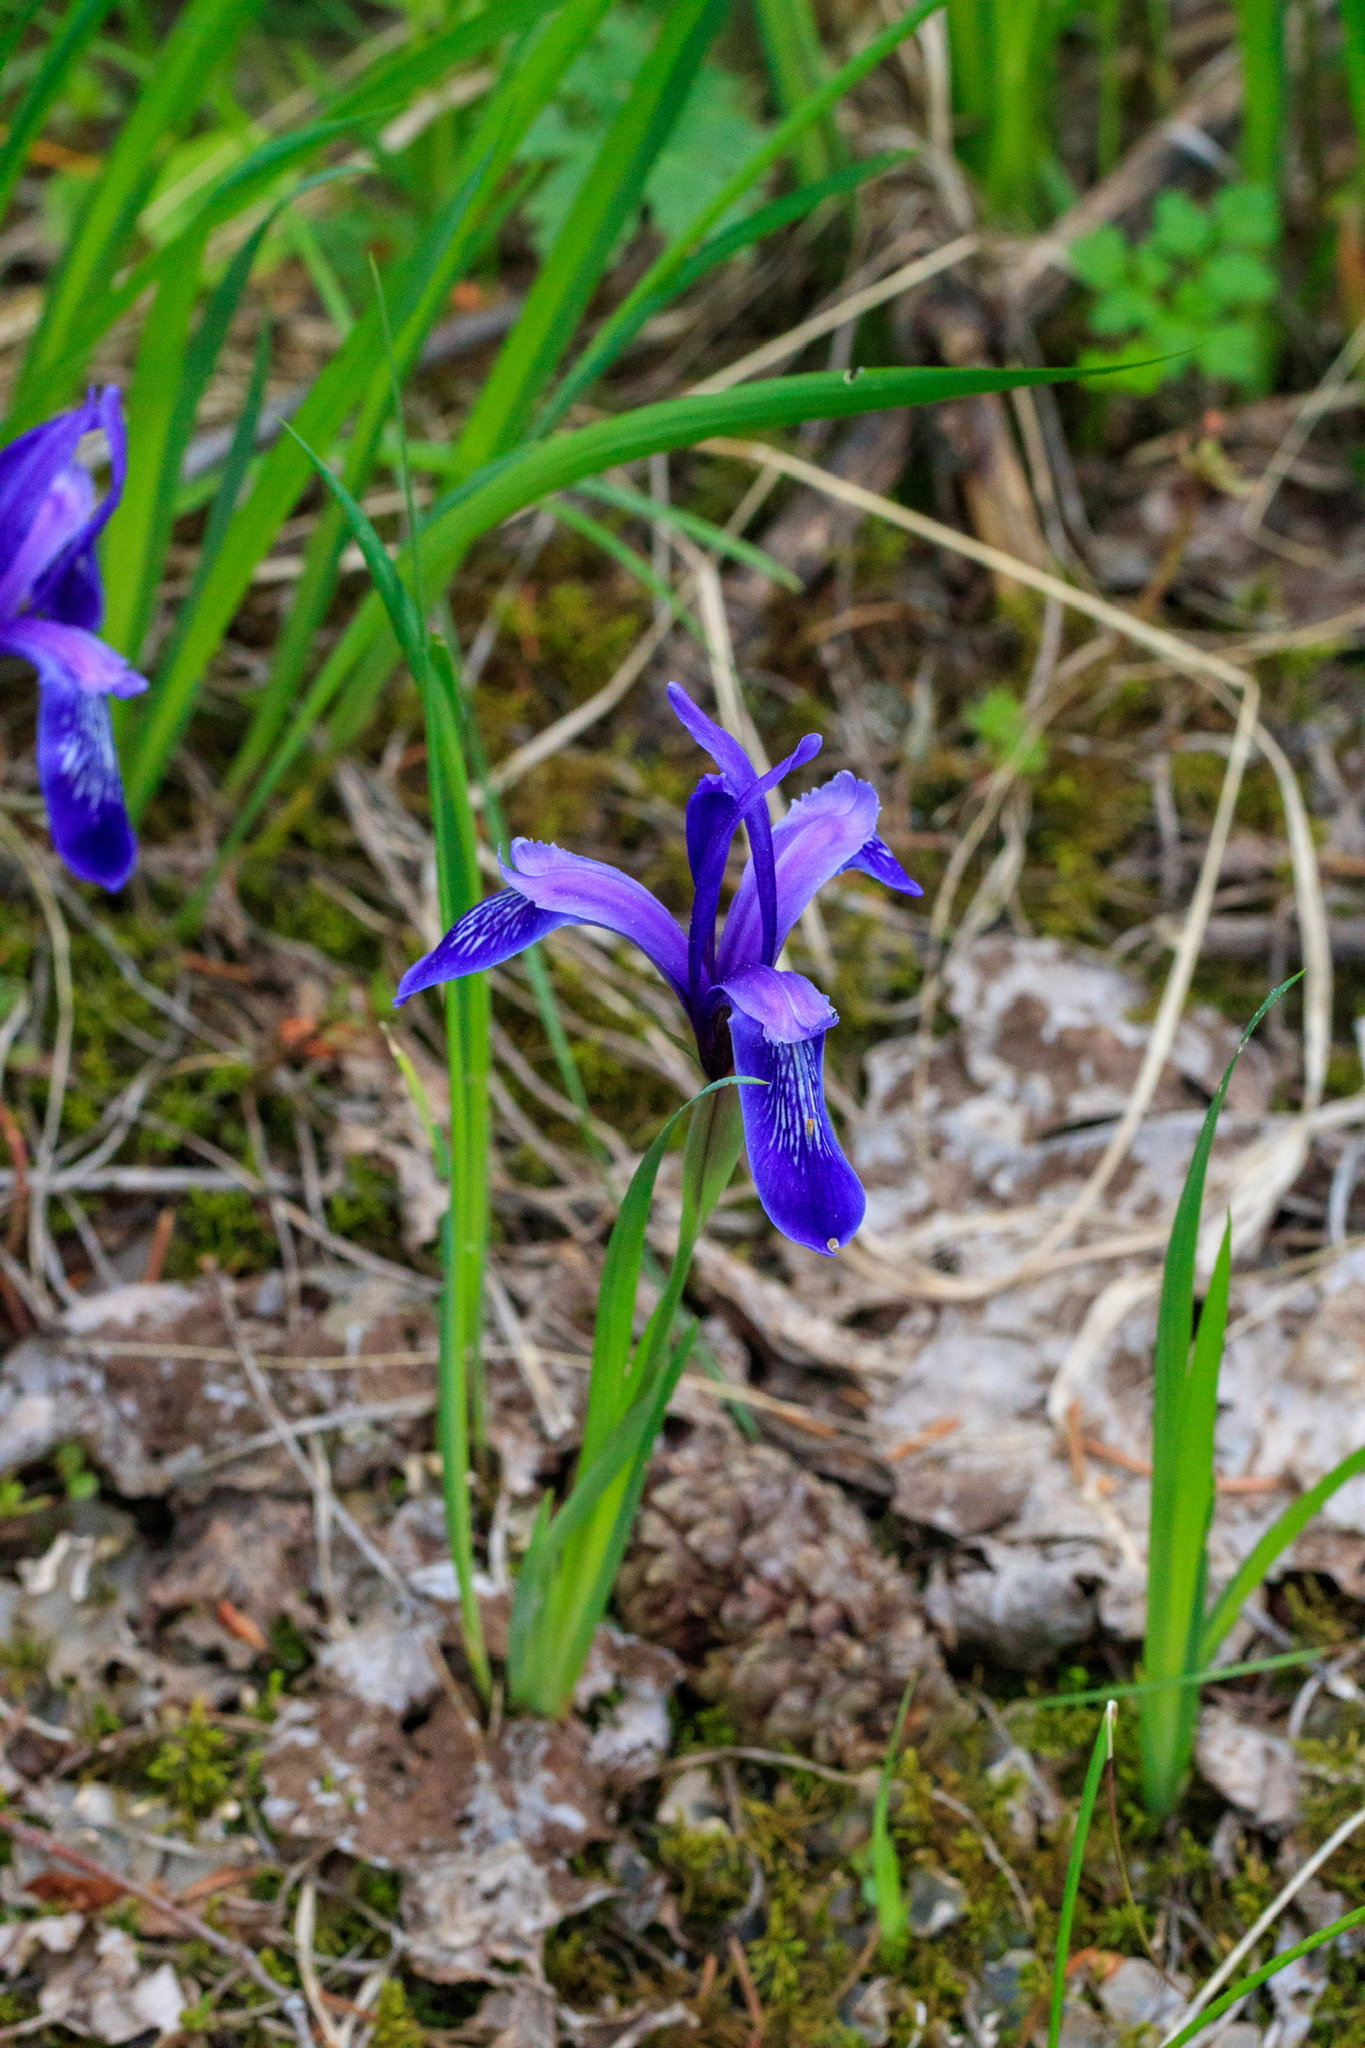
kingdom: Plantae
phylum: Tracheophyta
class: Liliopsida
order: Asparagales
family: Iridaceae
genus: Iris
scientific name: Iris ruthenica
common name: Purple-bract iris
